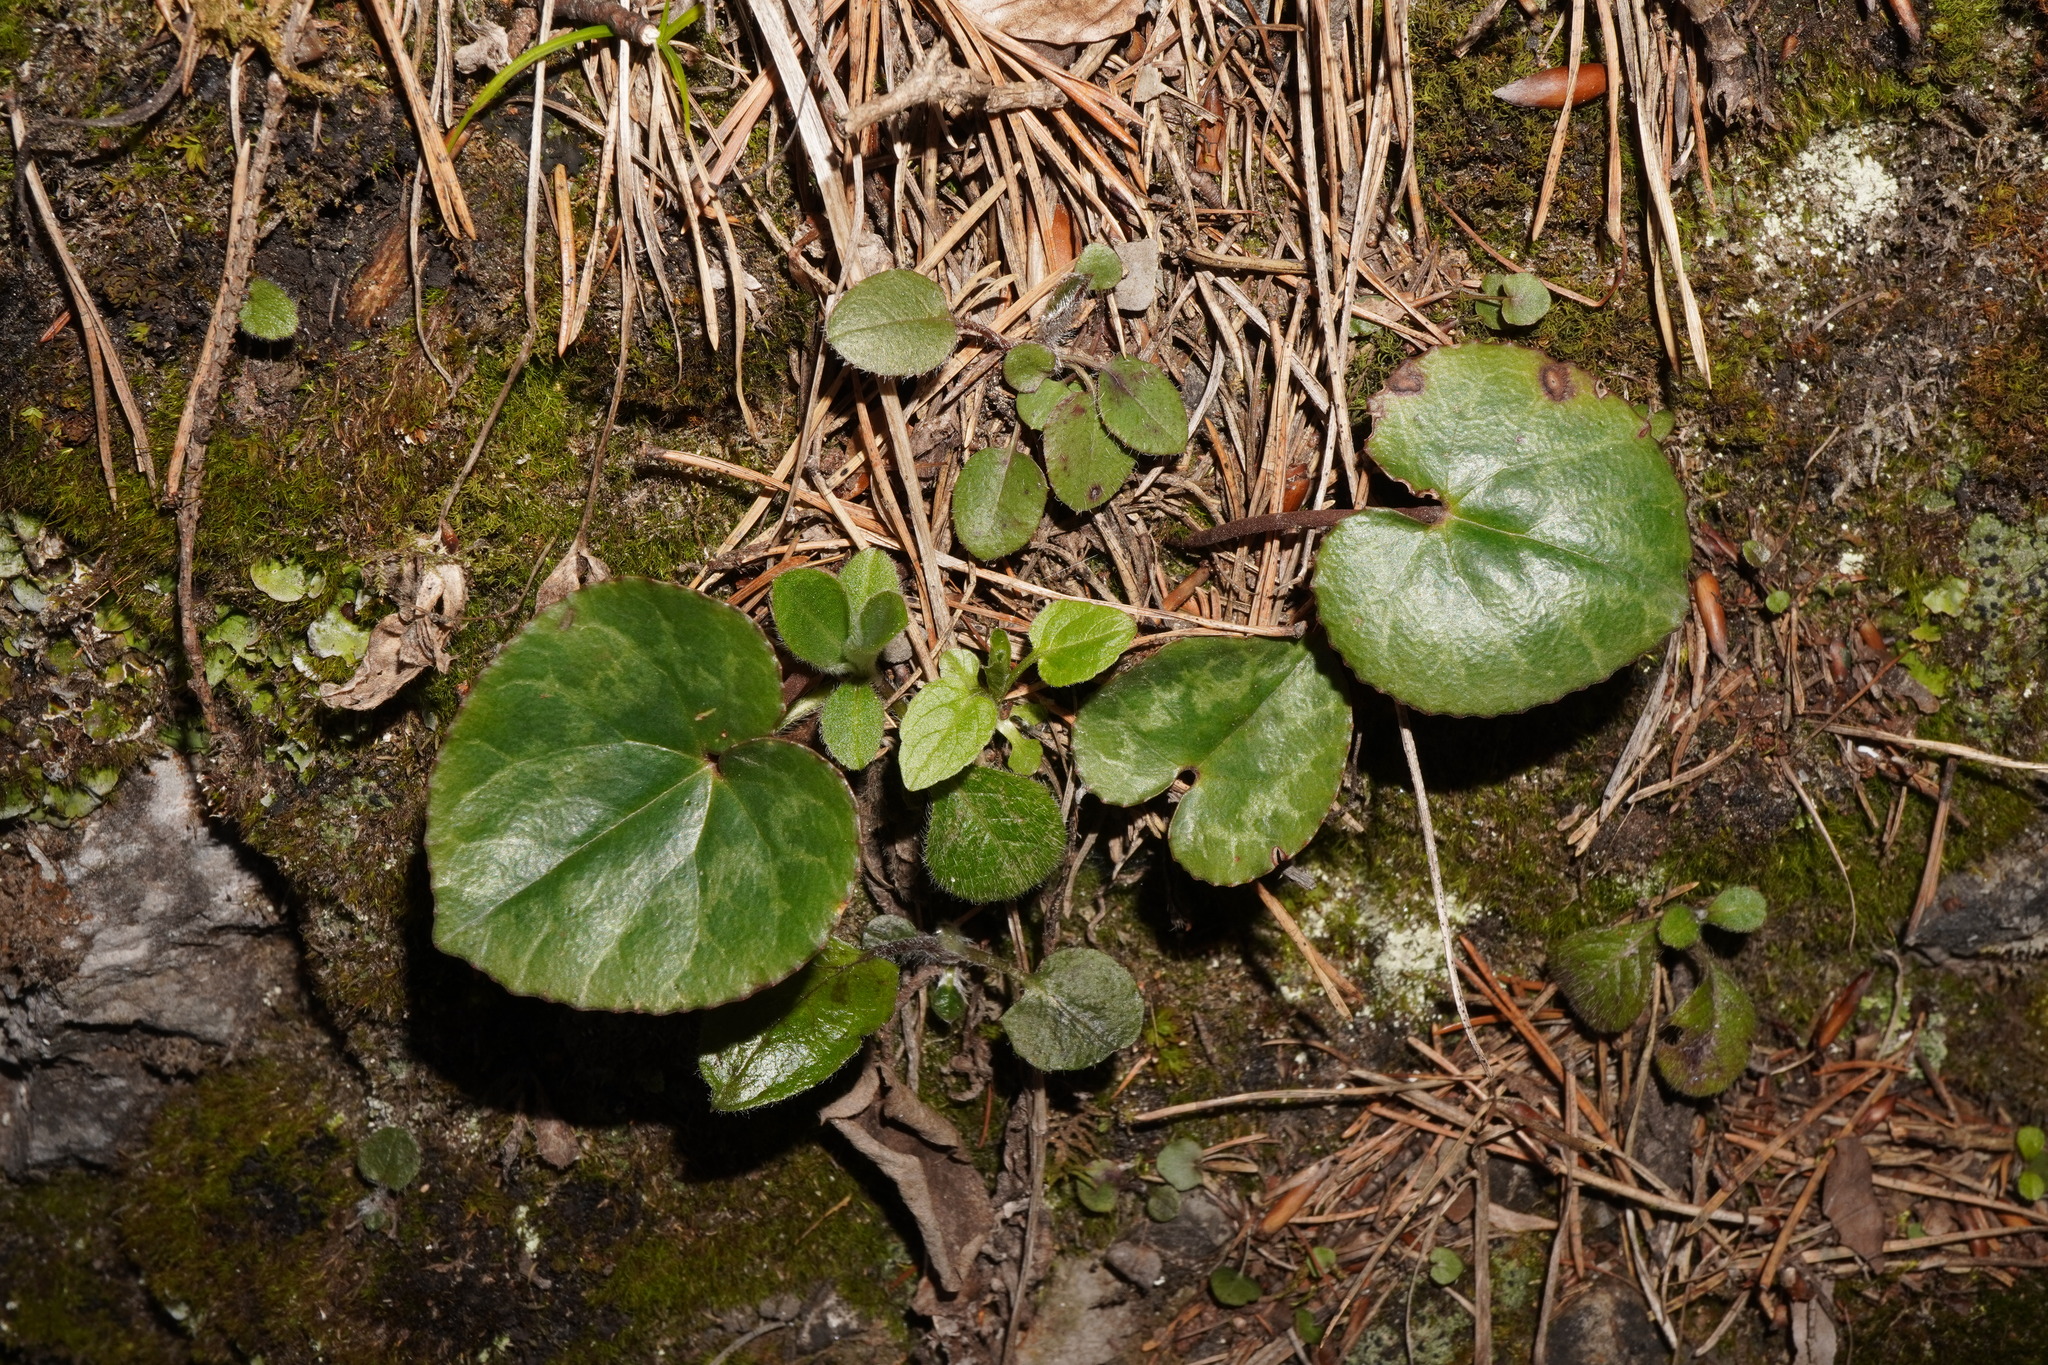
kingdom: Plantae
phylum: Tracheophyta
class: Magnoliopsida
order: Ericales
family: Primulaceae
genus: Cyclamen
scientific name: Cyclamen purpurascens
